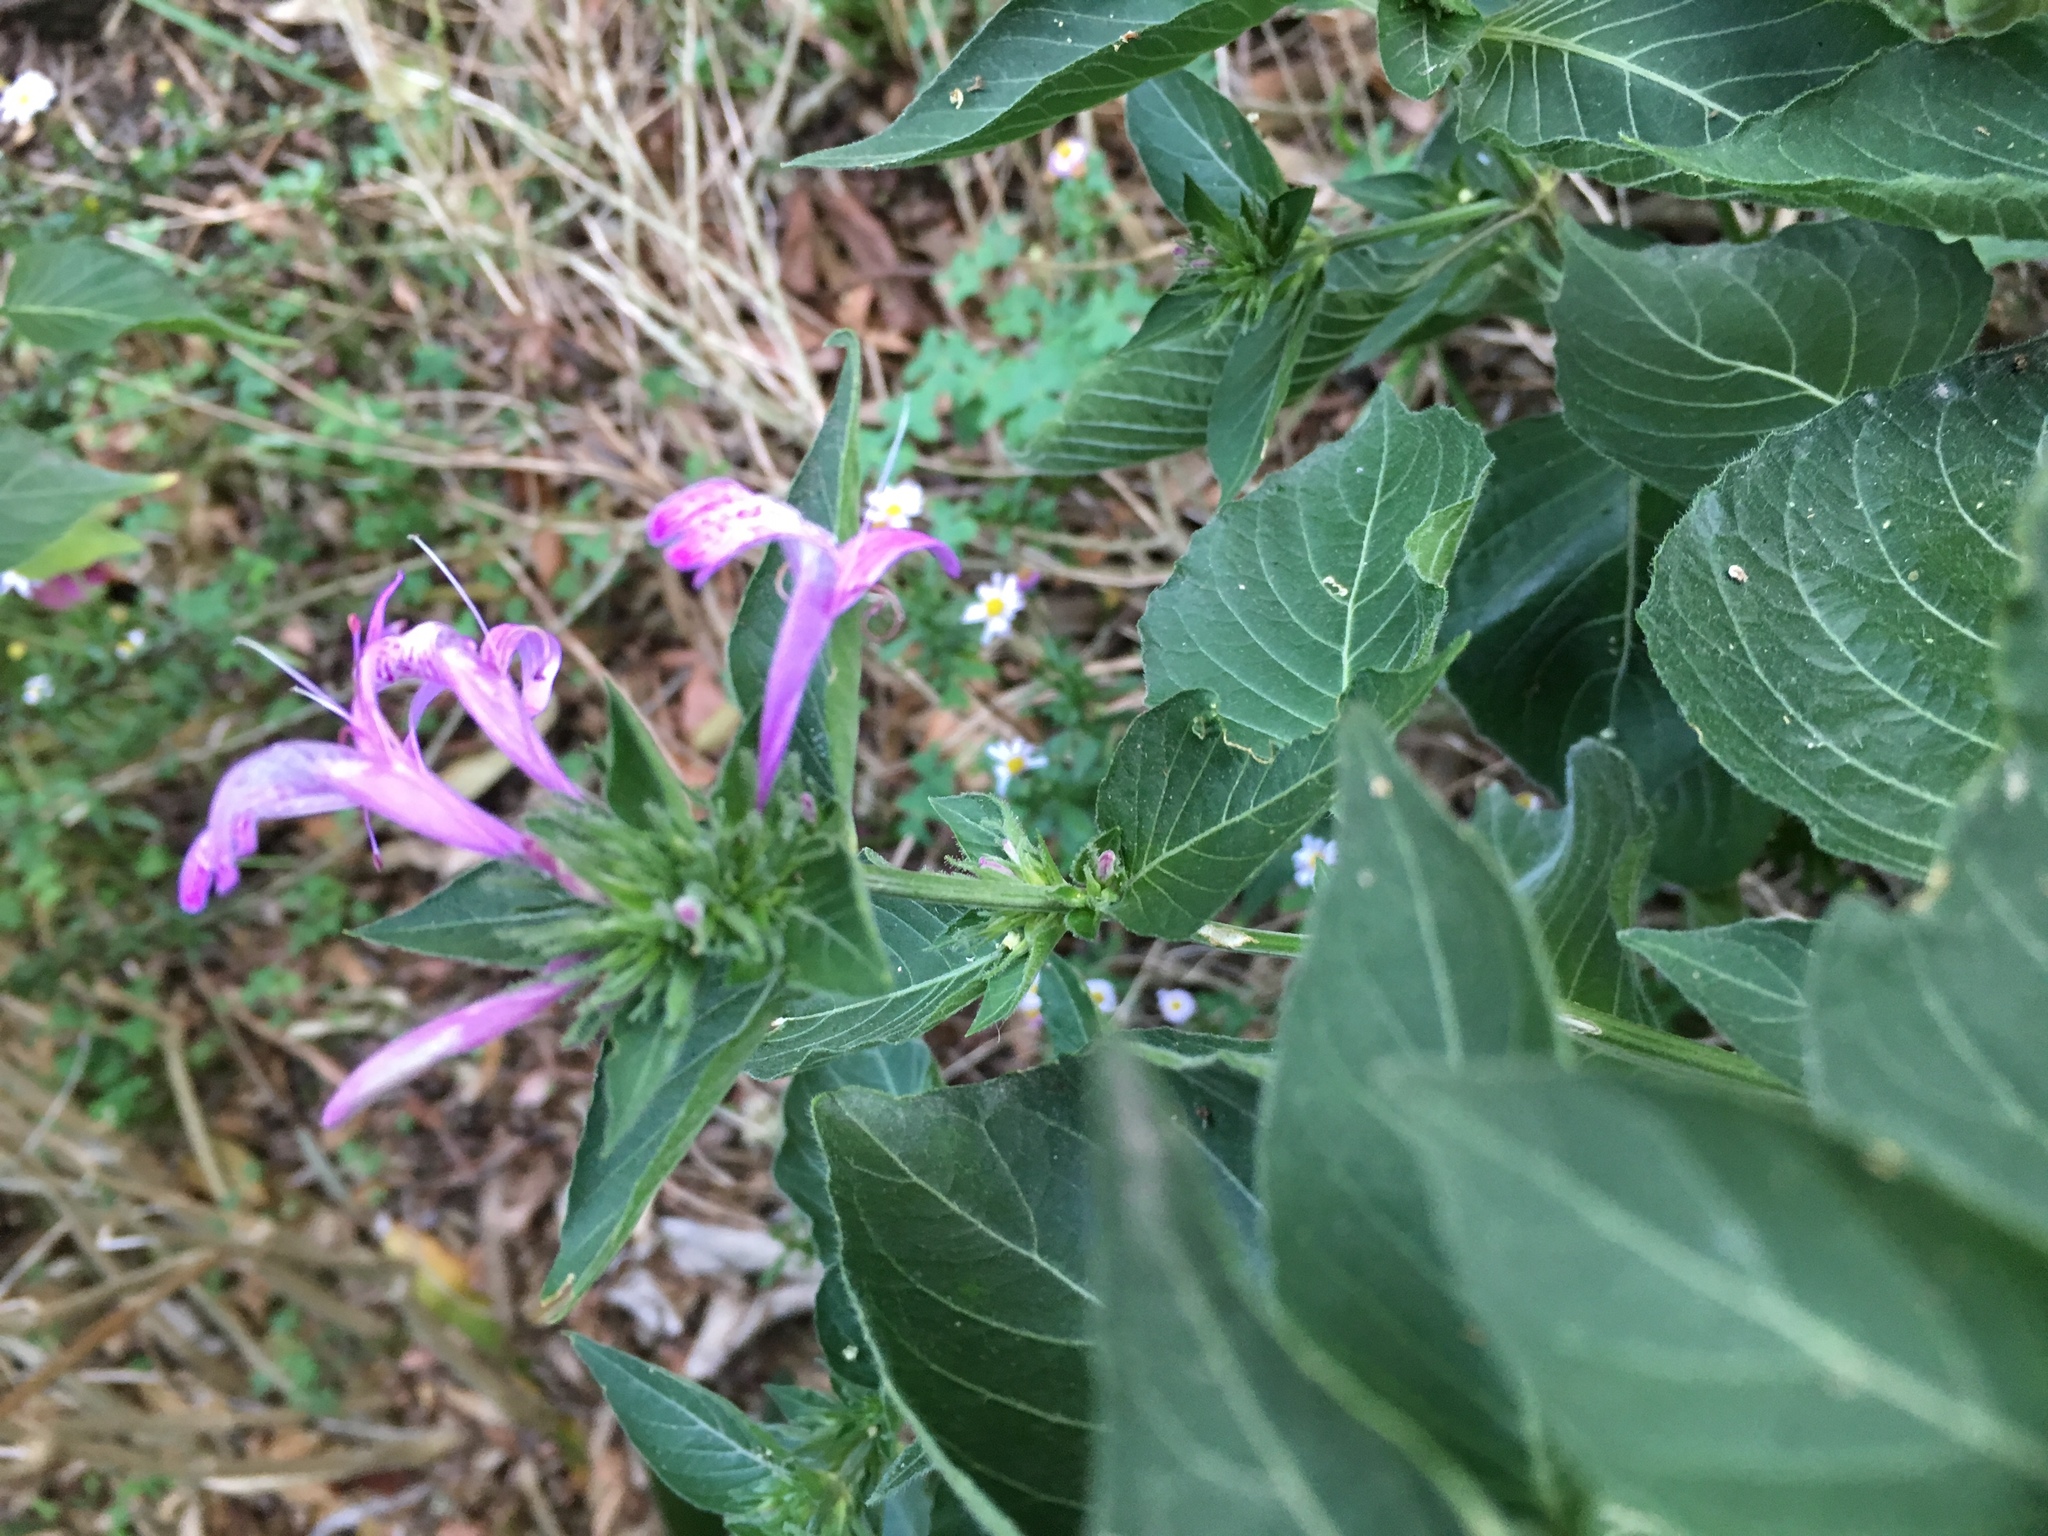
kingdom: Plantae
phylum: Tracheophyta
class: Magnoliopsida
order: Lamiales
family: Acanthaceae
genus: Hypoestes
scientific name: Hypoestes aristata
